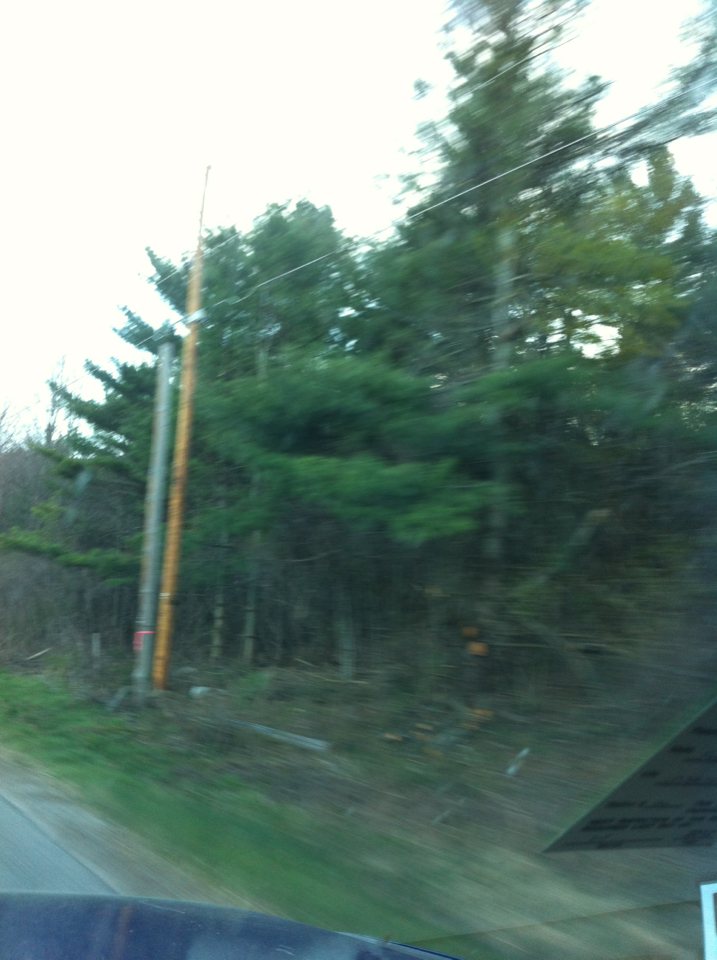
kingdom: Plantae
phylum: Tracheophyta
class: Pinopsida
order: Pinales
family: Pinaceae
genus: Pinus
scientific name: Pinus strobus
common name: Weymouth pine
